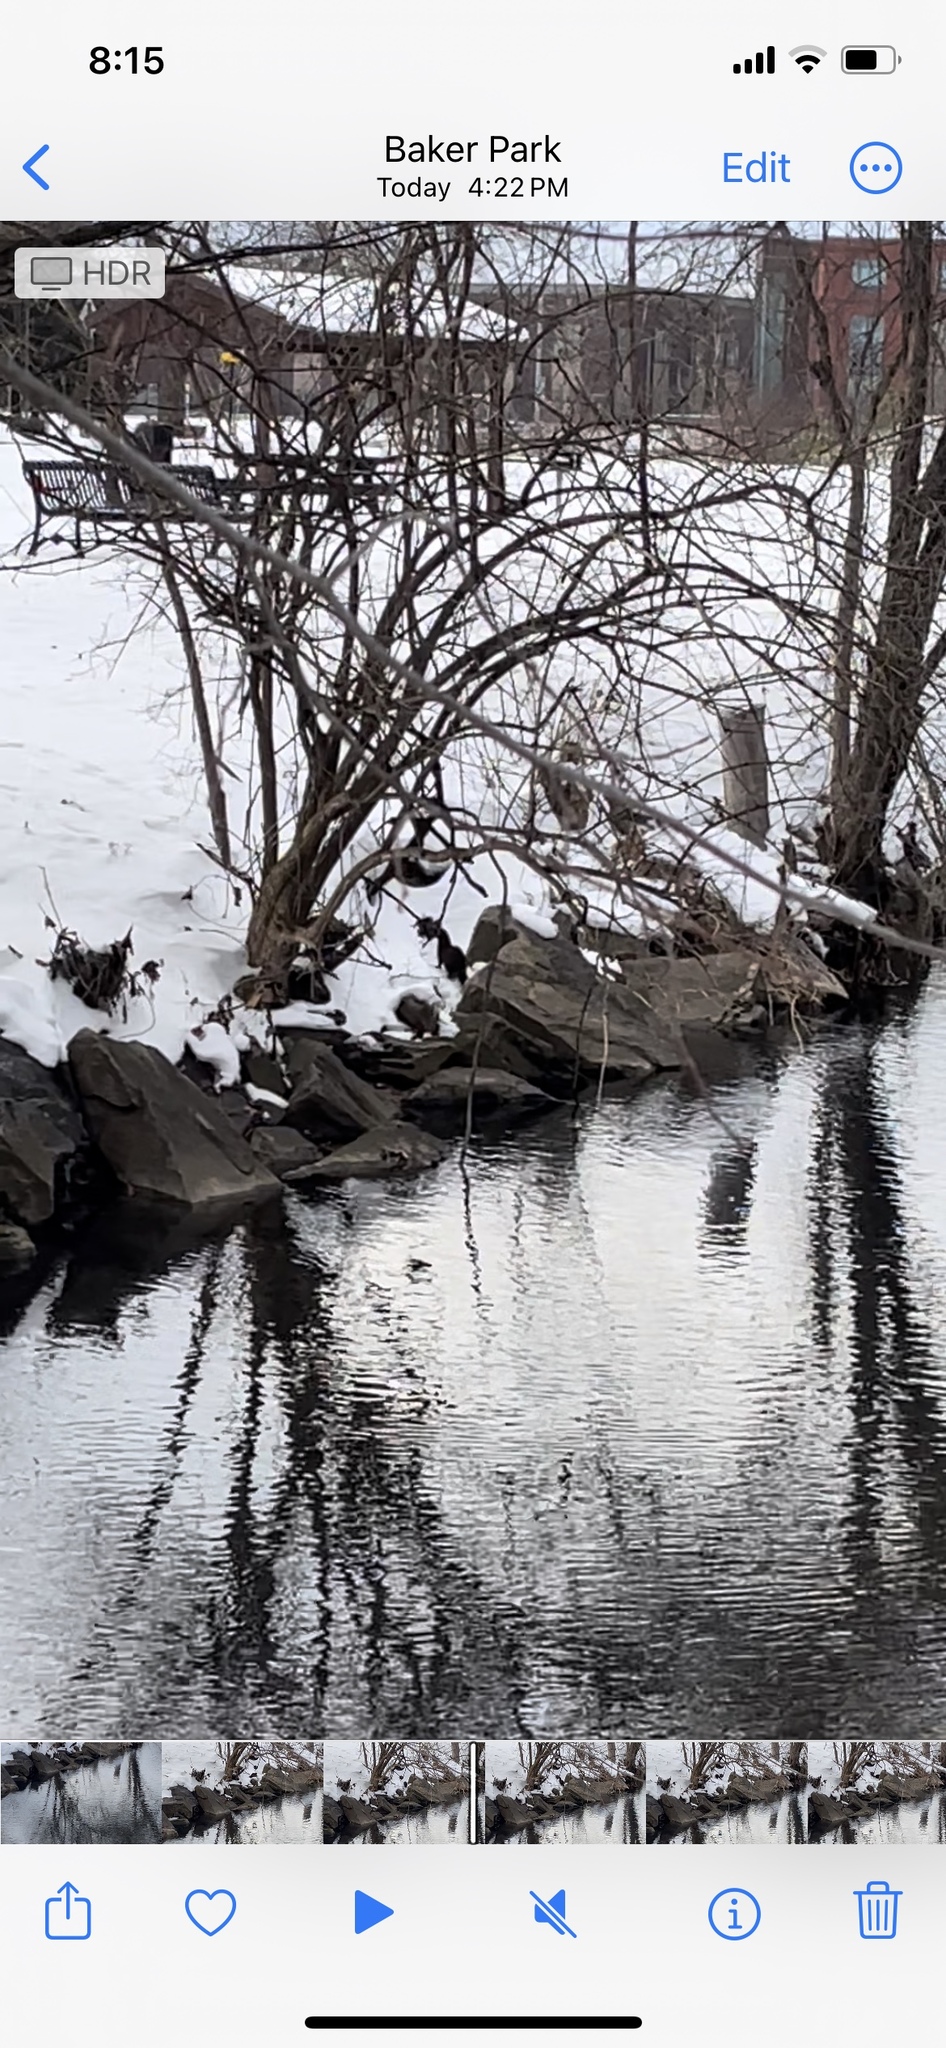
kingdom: Animalia
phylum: Chordata
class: Mammalia
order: Carnivora
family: Mustelidae
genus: Mustela
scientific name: Mustela
